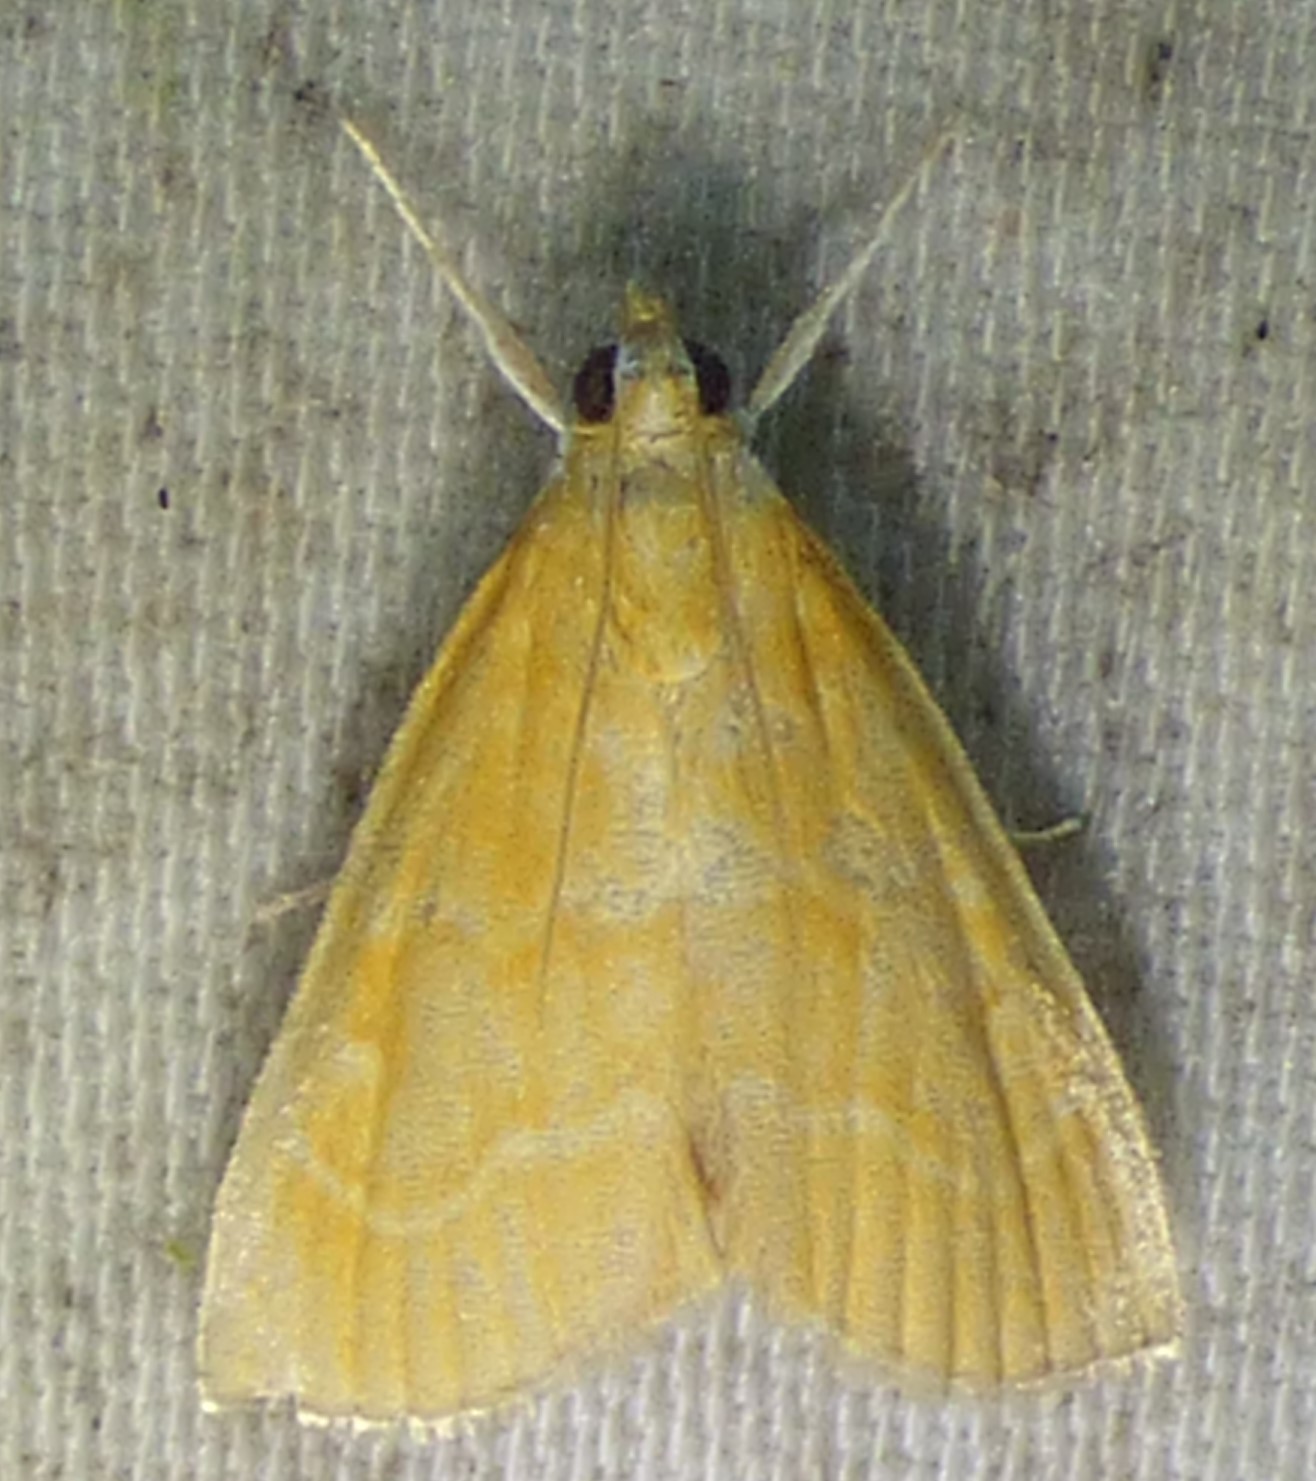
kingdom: Animalia
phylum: Arthropoda
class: Insecta
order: Lepidoptera
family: Crambidae
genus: Aethiophysa
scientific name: Aethiophysa
